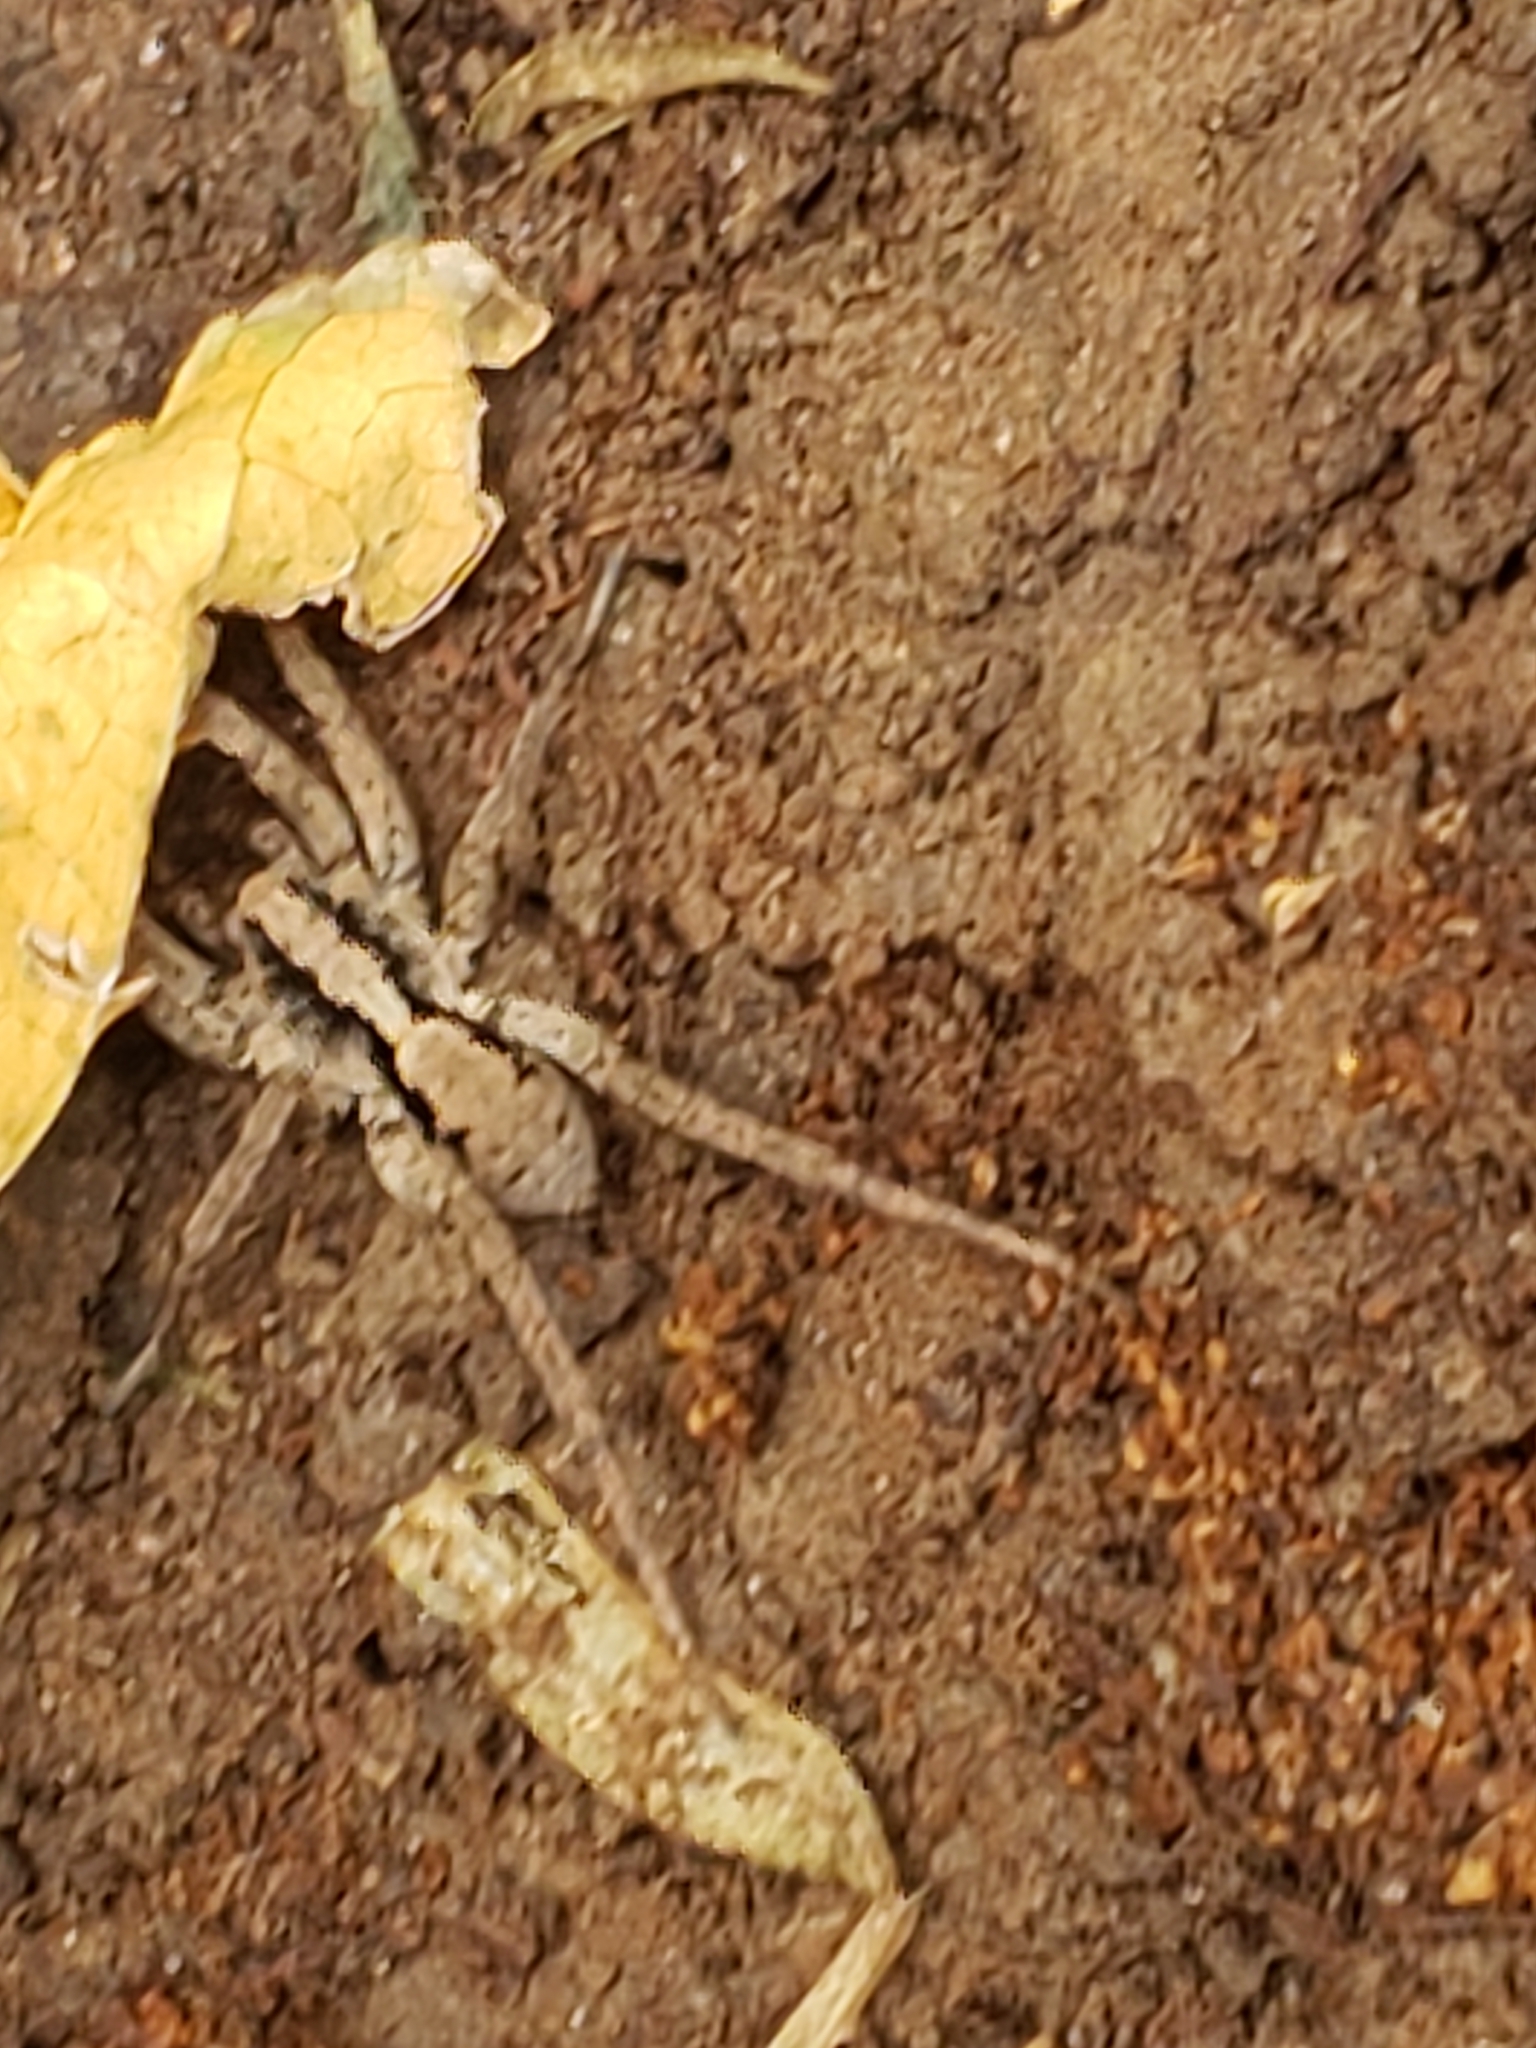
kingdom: Animalia
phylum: Arthropoda
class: Arachnida
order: Araneae
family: Lycosidae
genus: Gladicosa
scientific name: Gladicosa gulosa
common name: Drumming sword wolf spider
